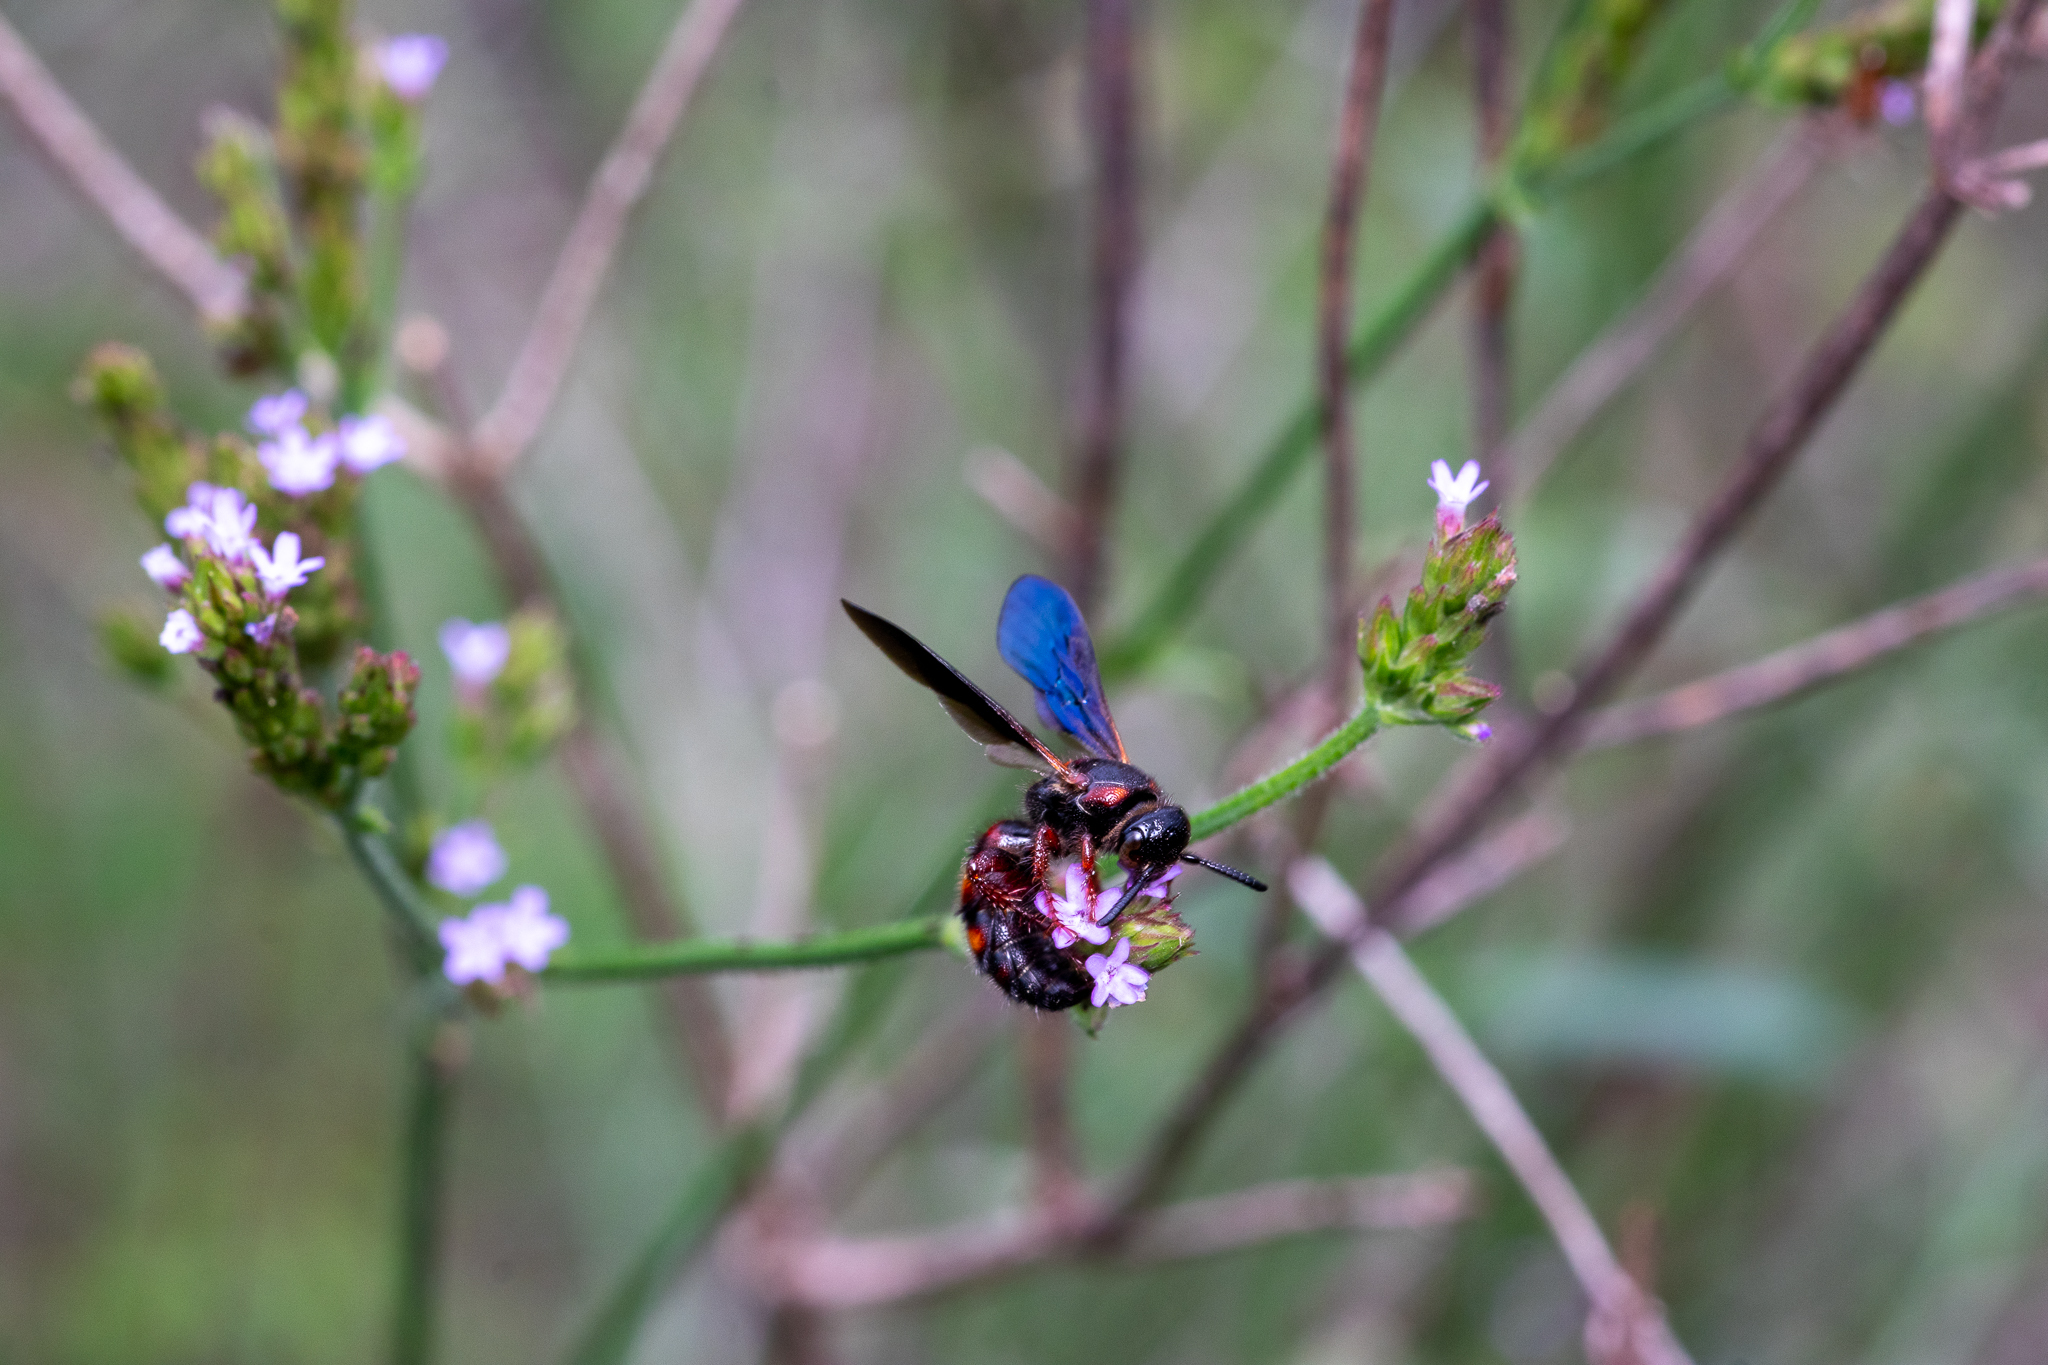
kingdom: Animalia
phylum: Arthropoda
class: Insecta
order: Hymenoptera
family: Scoliidae
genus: Scolia
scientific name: Scolia nobilitata
